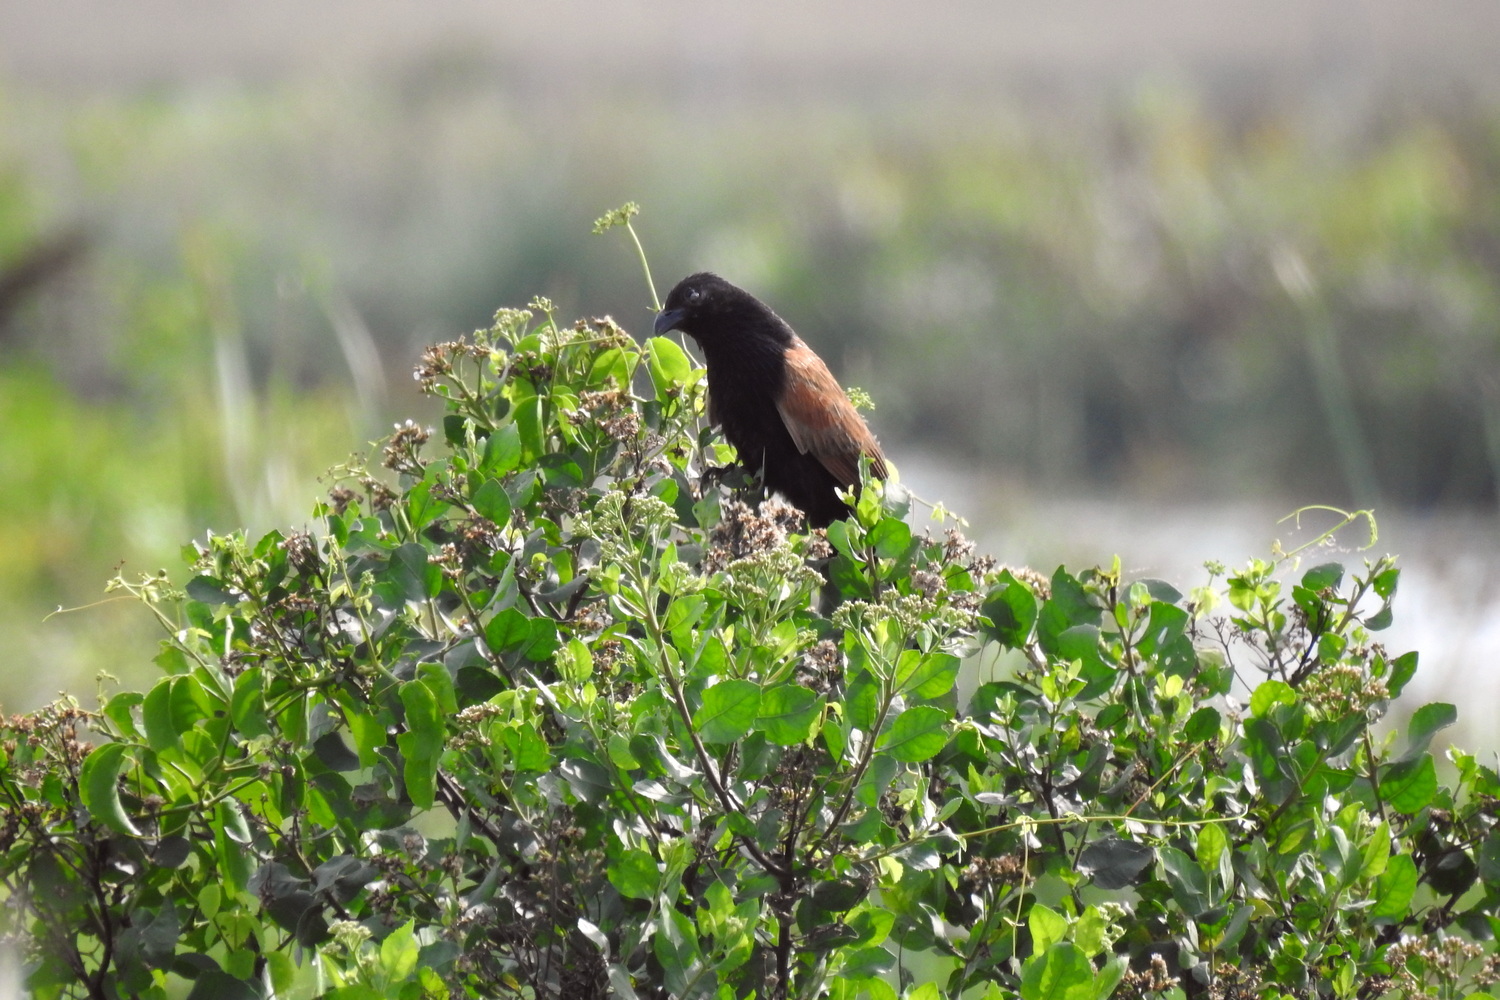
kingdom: Animalia
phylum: Chordata
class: Aves
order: Cuculiformes
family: Cuculidae
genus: Centropus
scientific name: Centropus bengalensis
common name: Lesser coucal
